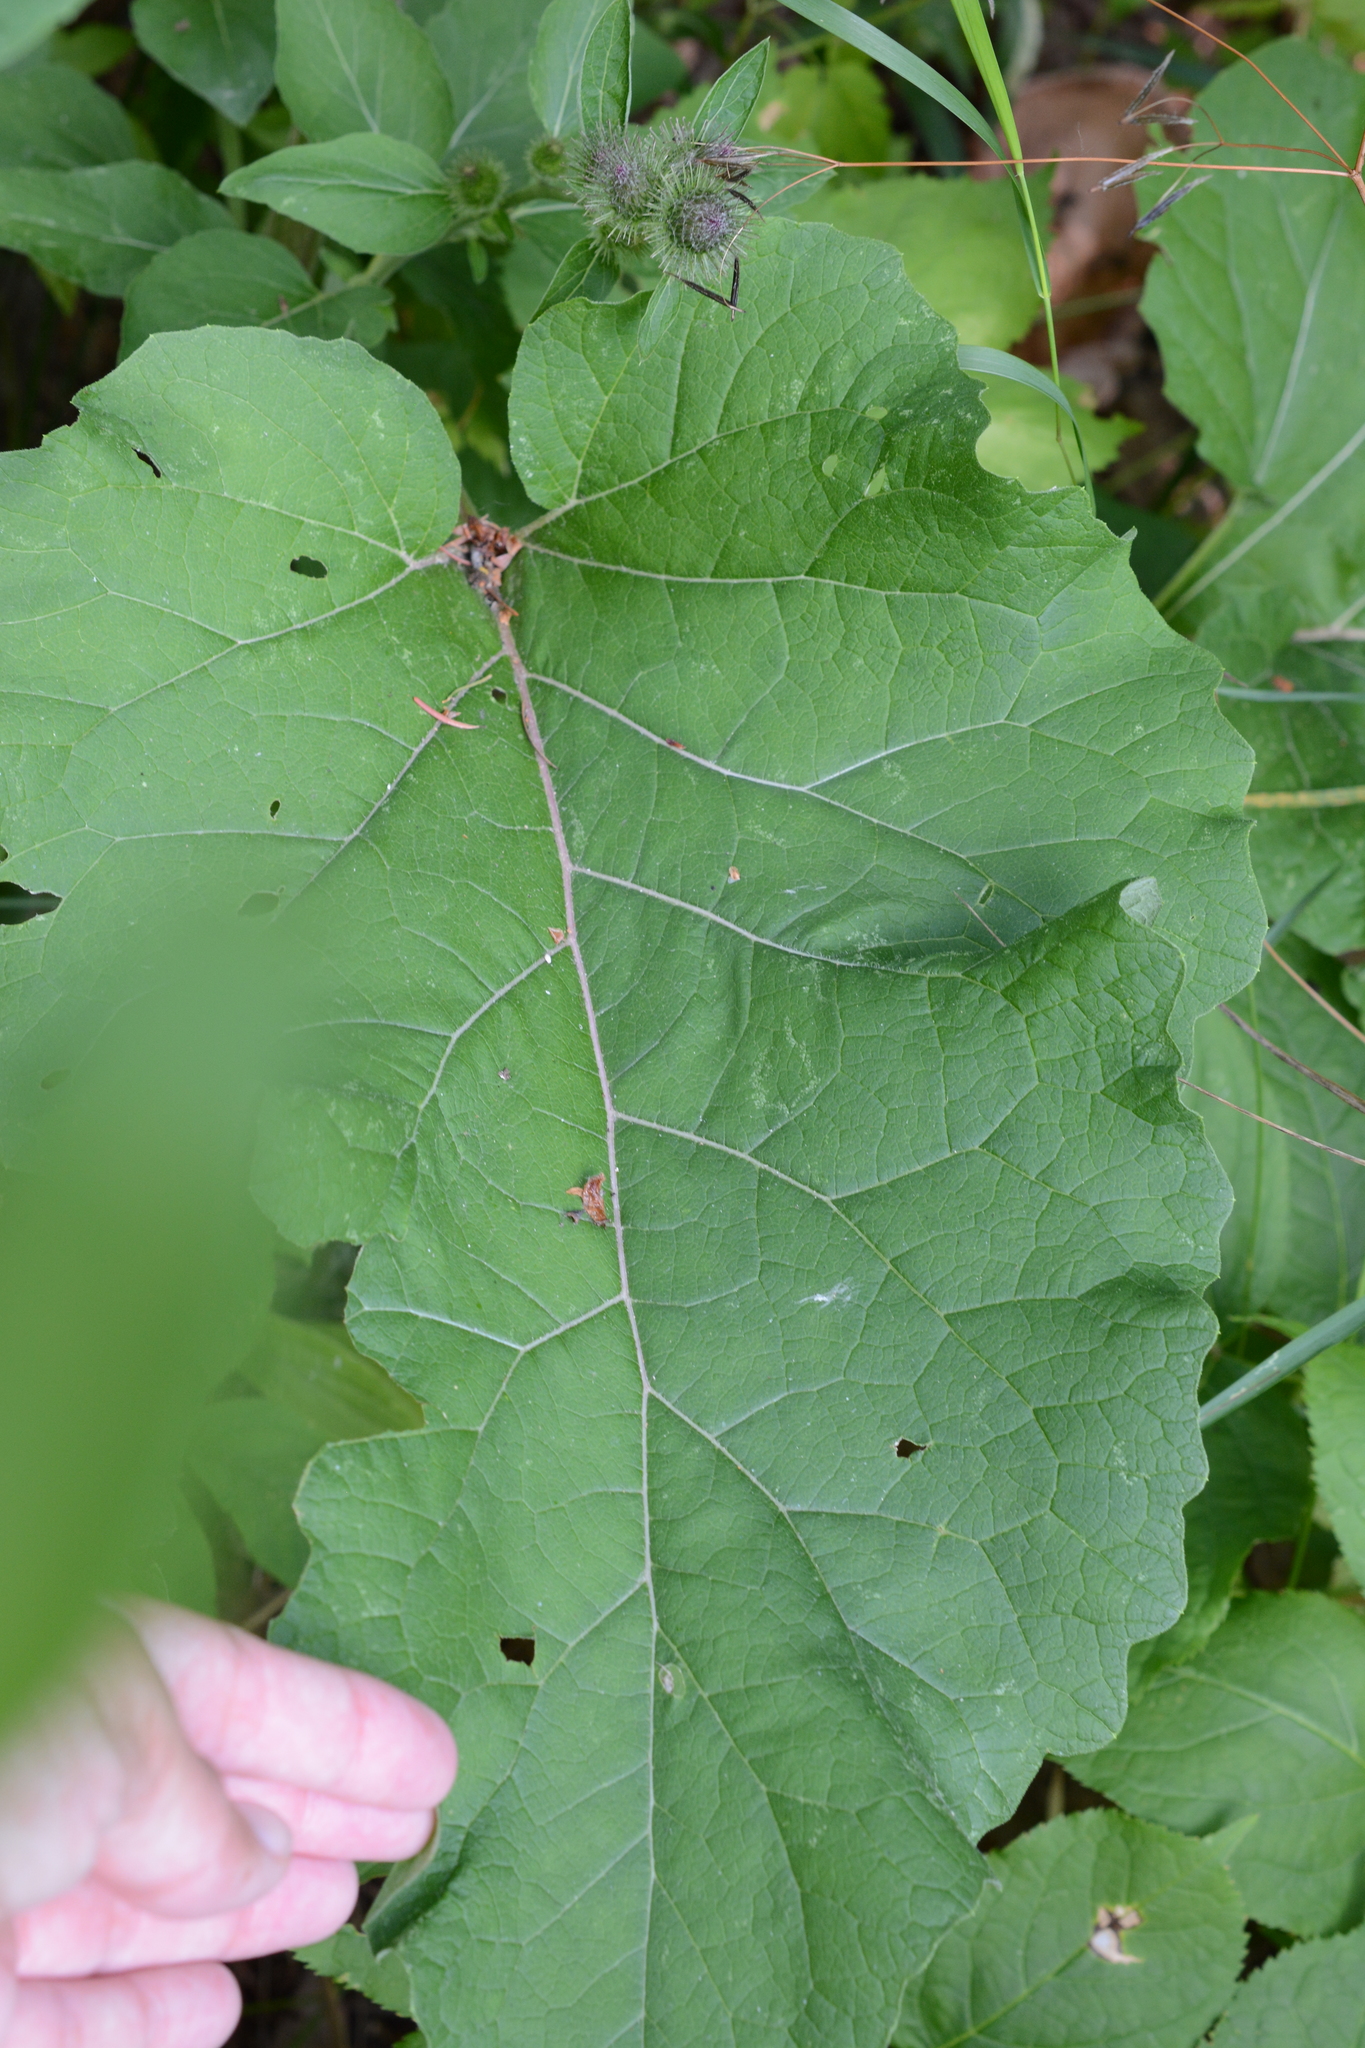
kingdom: Plantae
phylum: Tracheophyta
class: Magnoliopsida
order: Asterales
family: Asteraceae
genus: Arctium
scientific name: Arctium minus
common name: Lesser burdock
